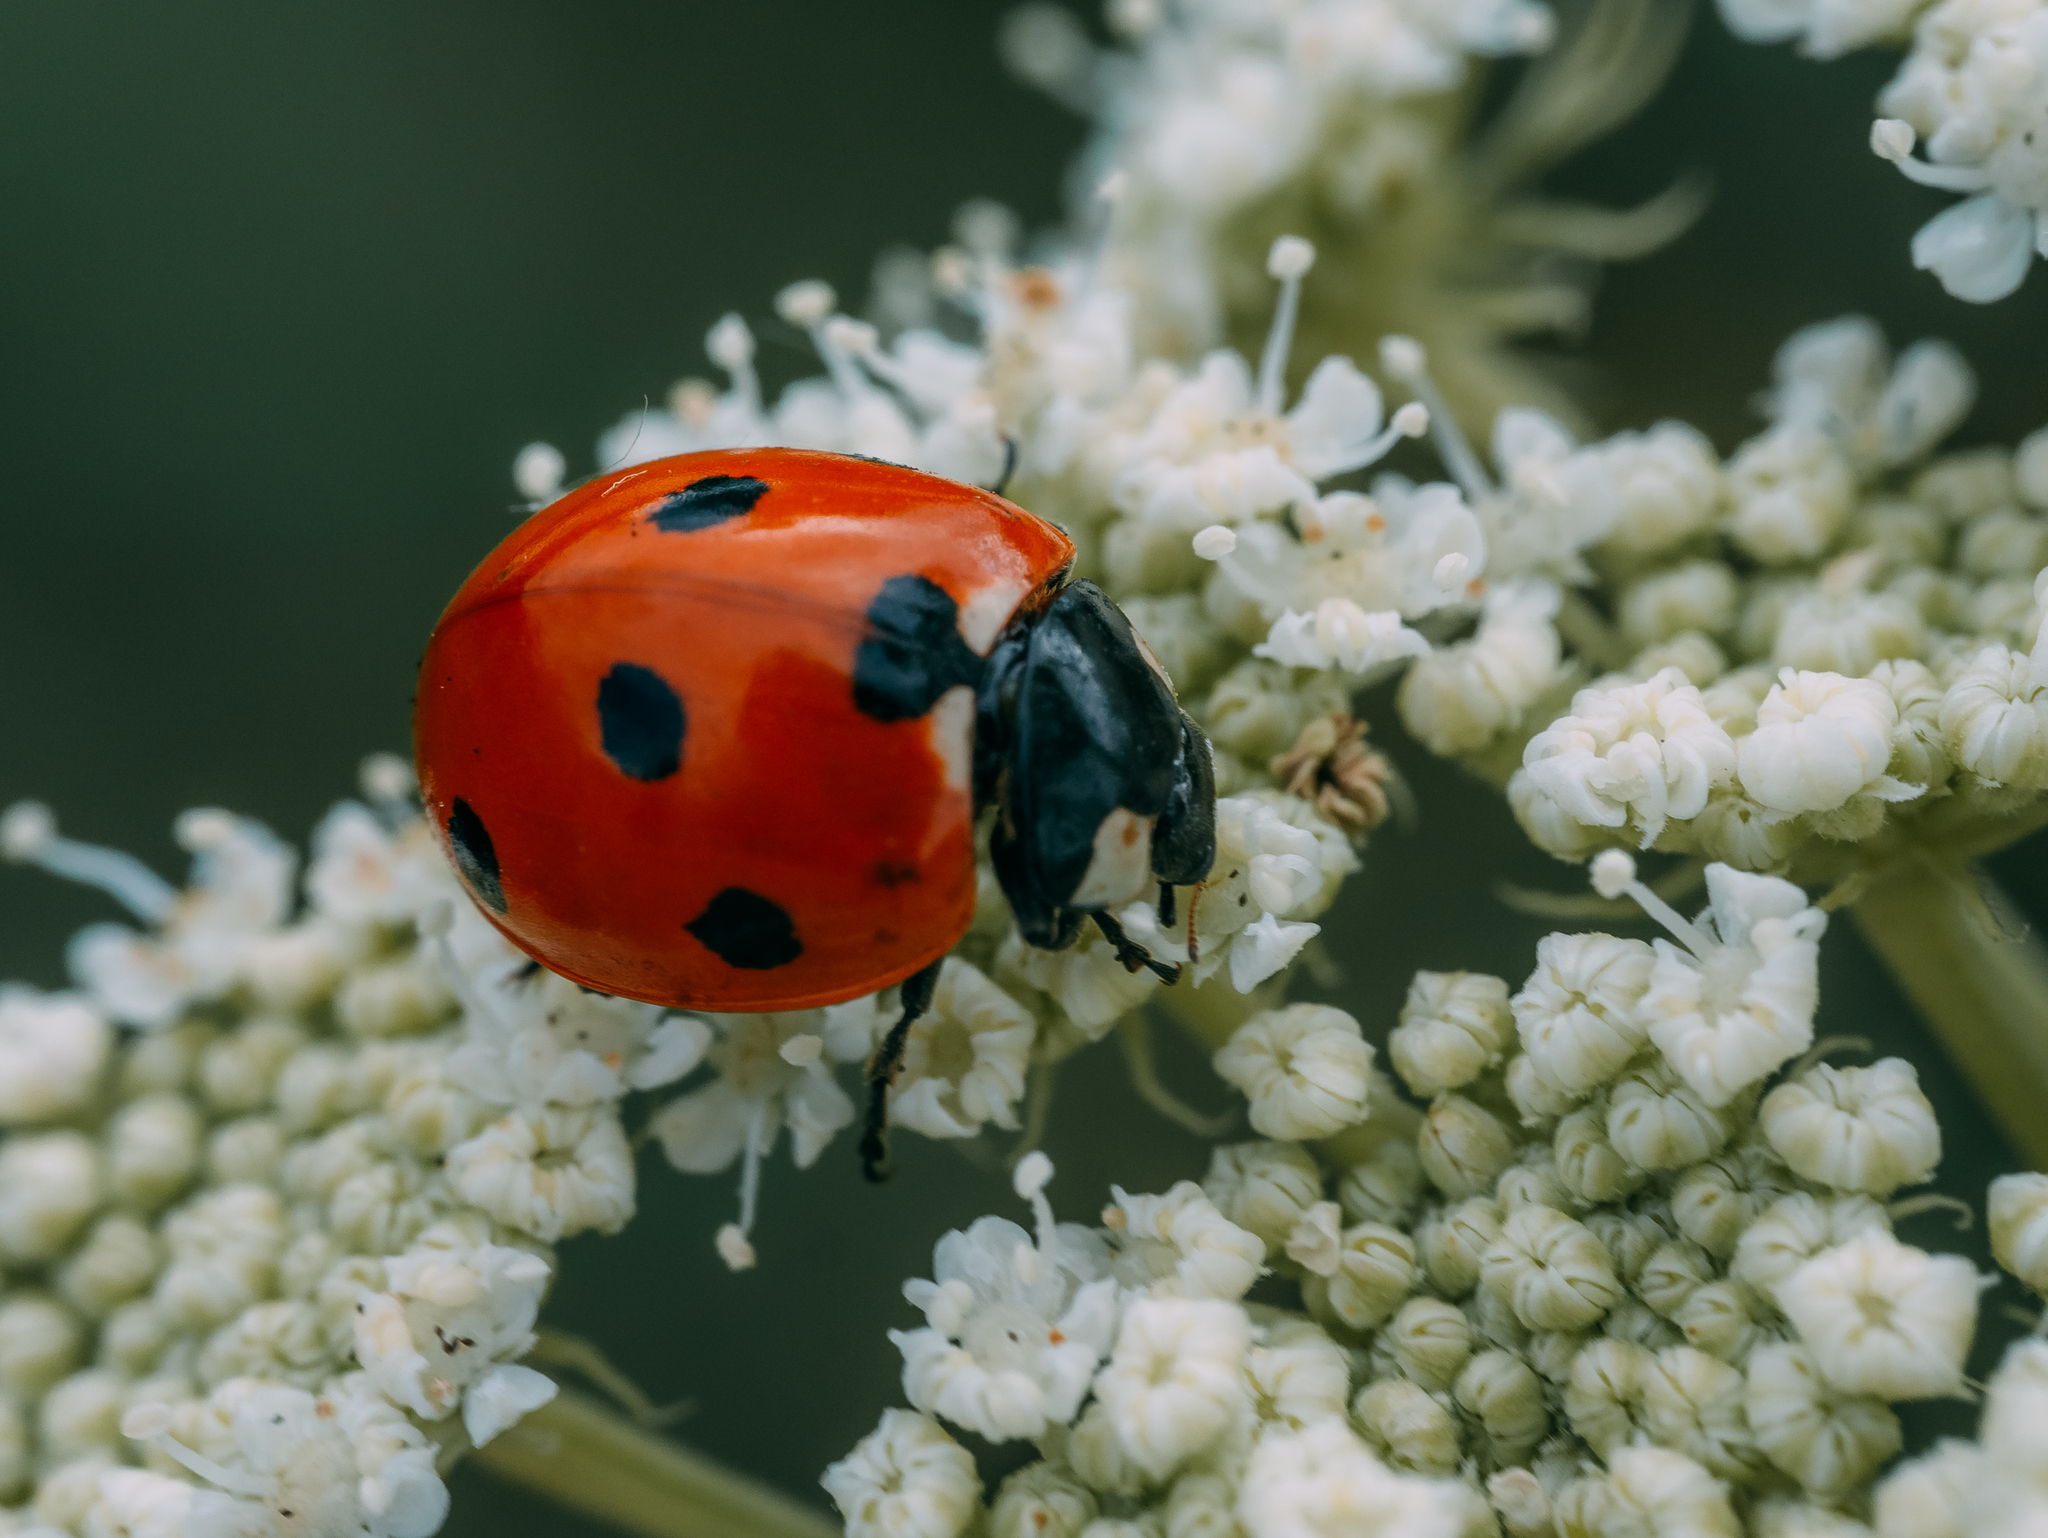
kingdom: Animalia
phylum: Arthropoda
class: Insecta
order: Coleoptera
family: Coccinellidae
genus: Coccinella
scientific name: Coccinella septempunctata
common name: Sevenspotted lady beetle
